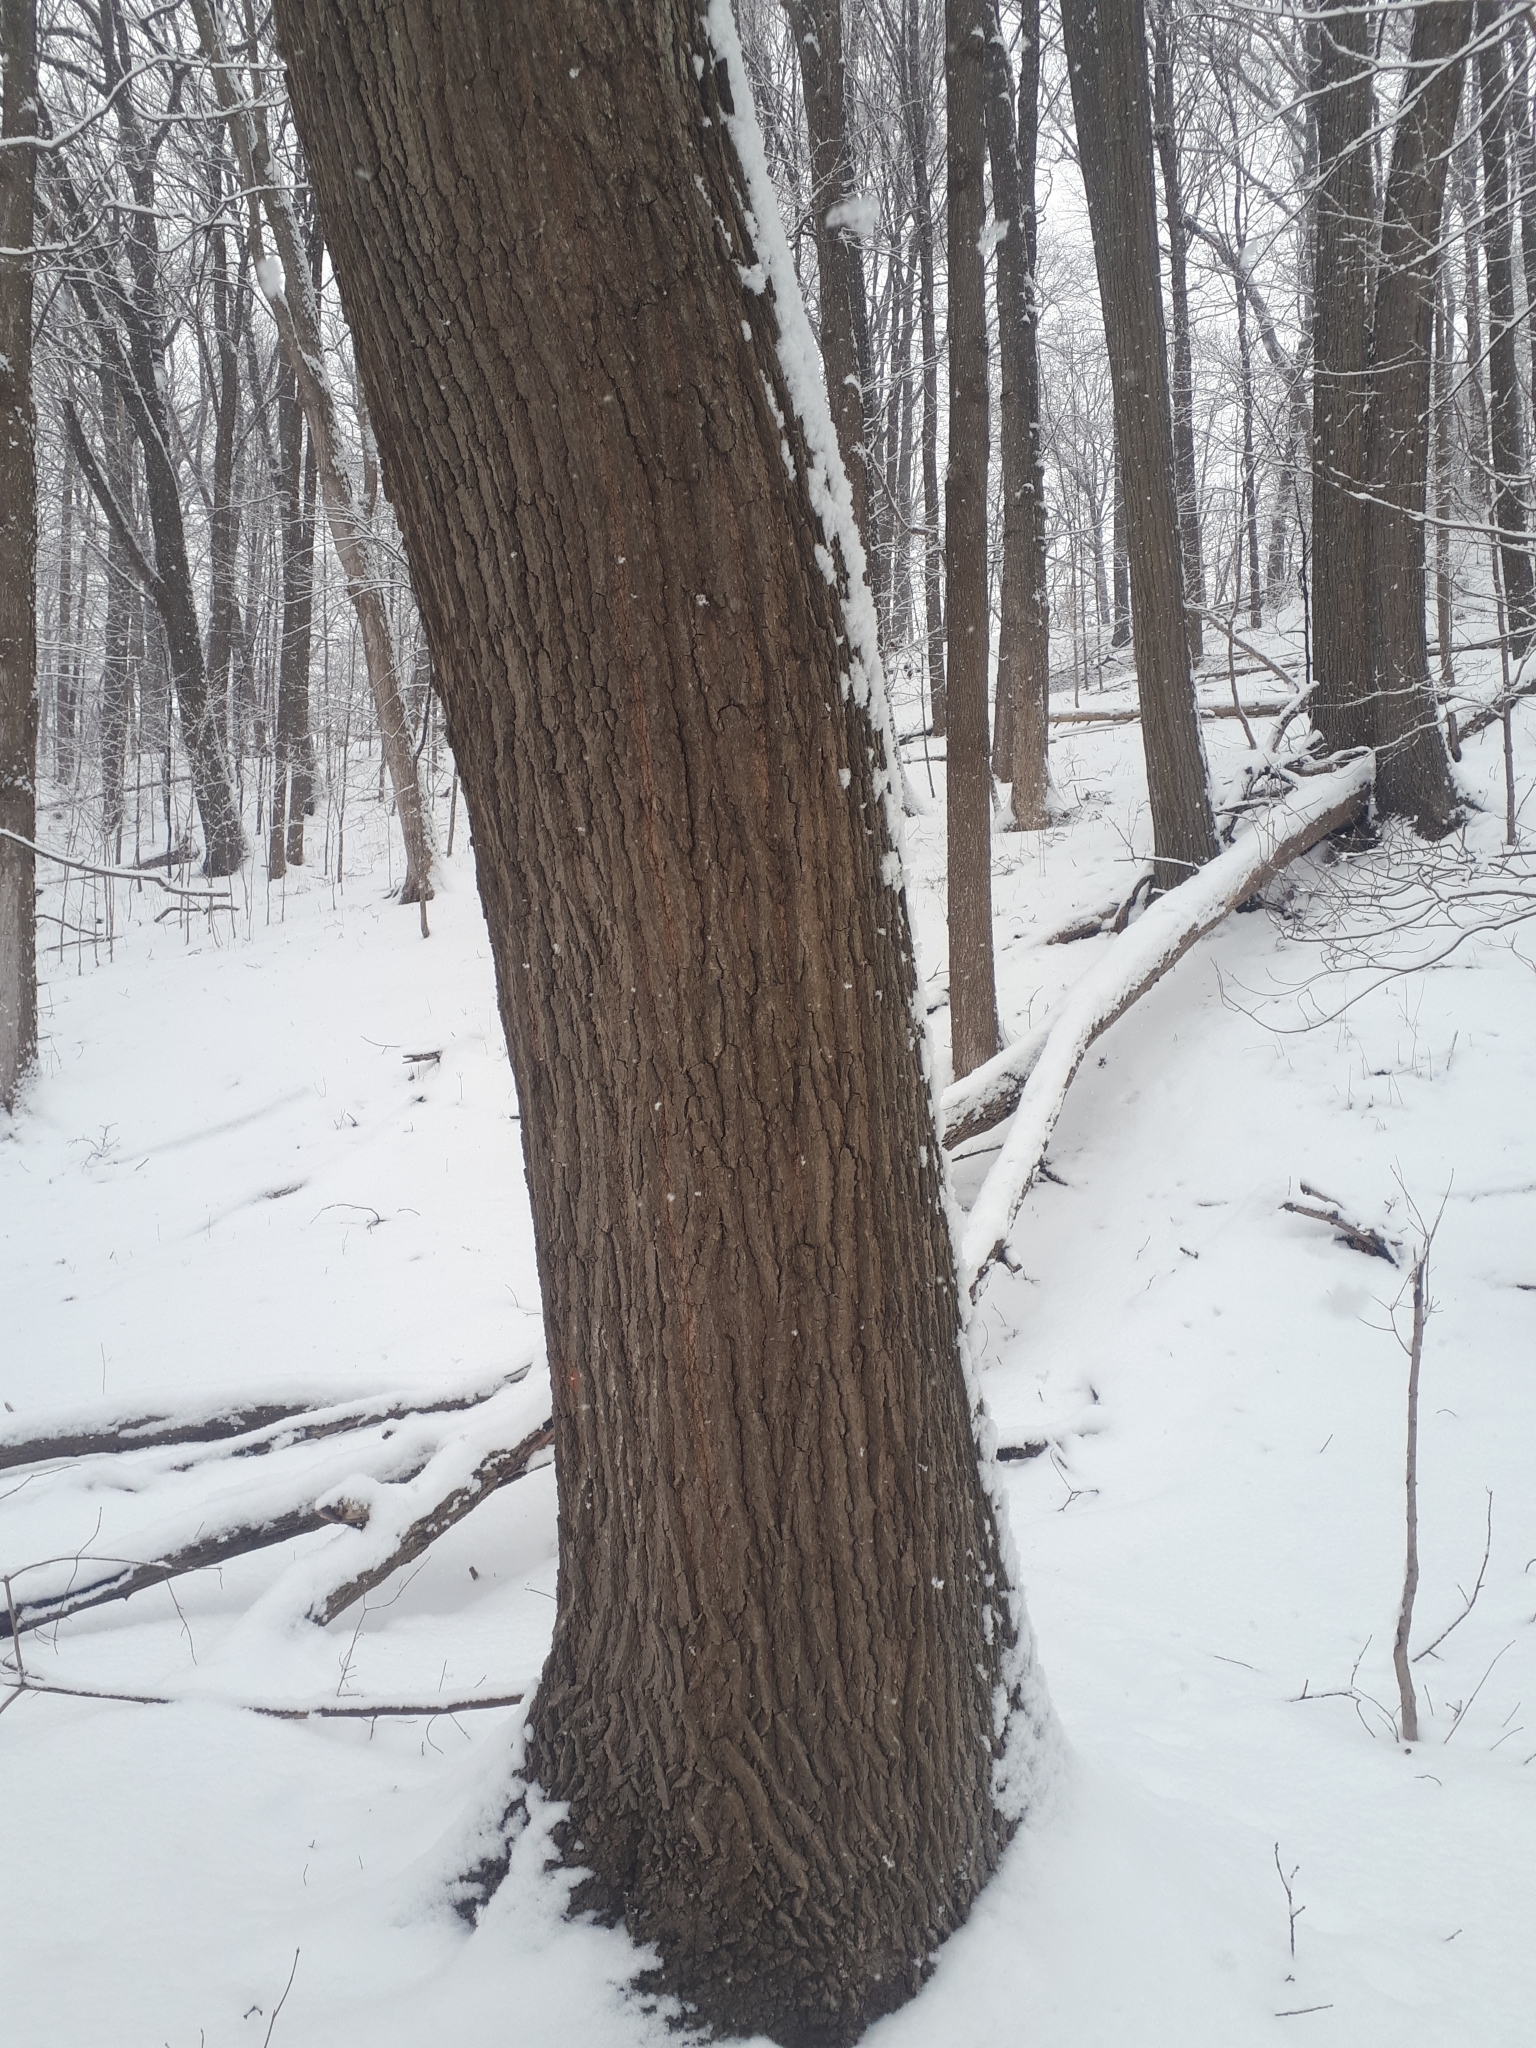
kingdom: Plantae
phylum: Tracheophyta
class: Magnoliopsida
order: Fagales
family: Fagaceae
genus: Quercus
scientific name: Quercus rubra
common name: Red oak
